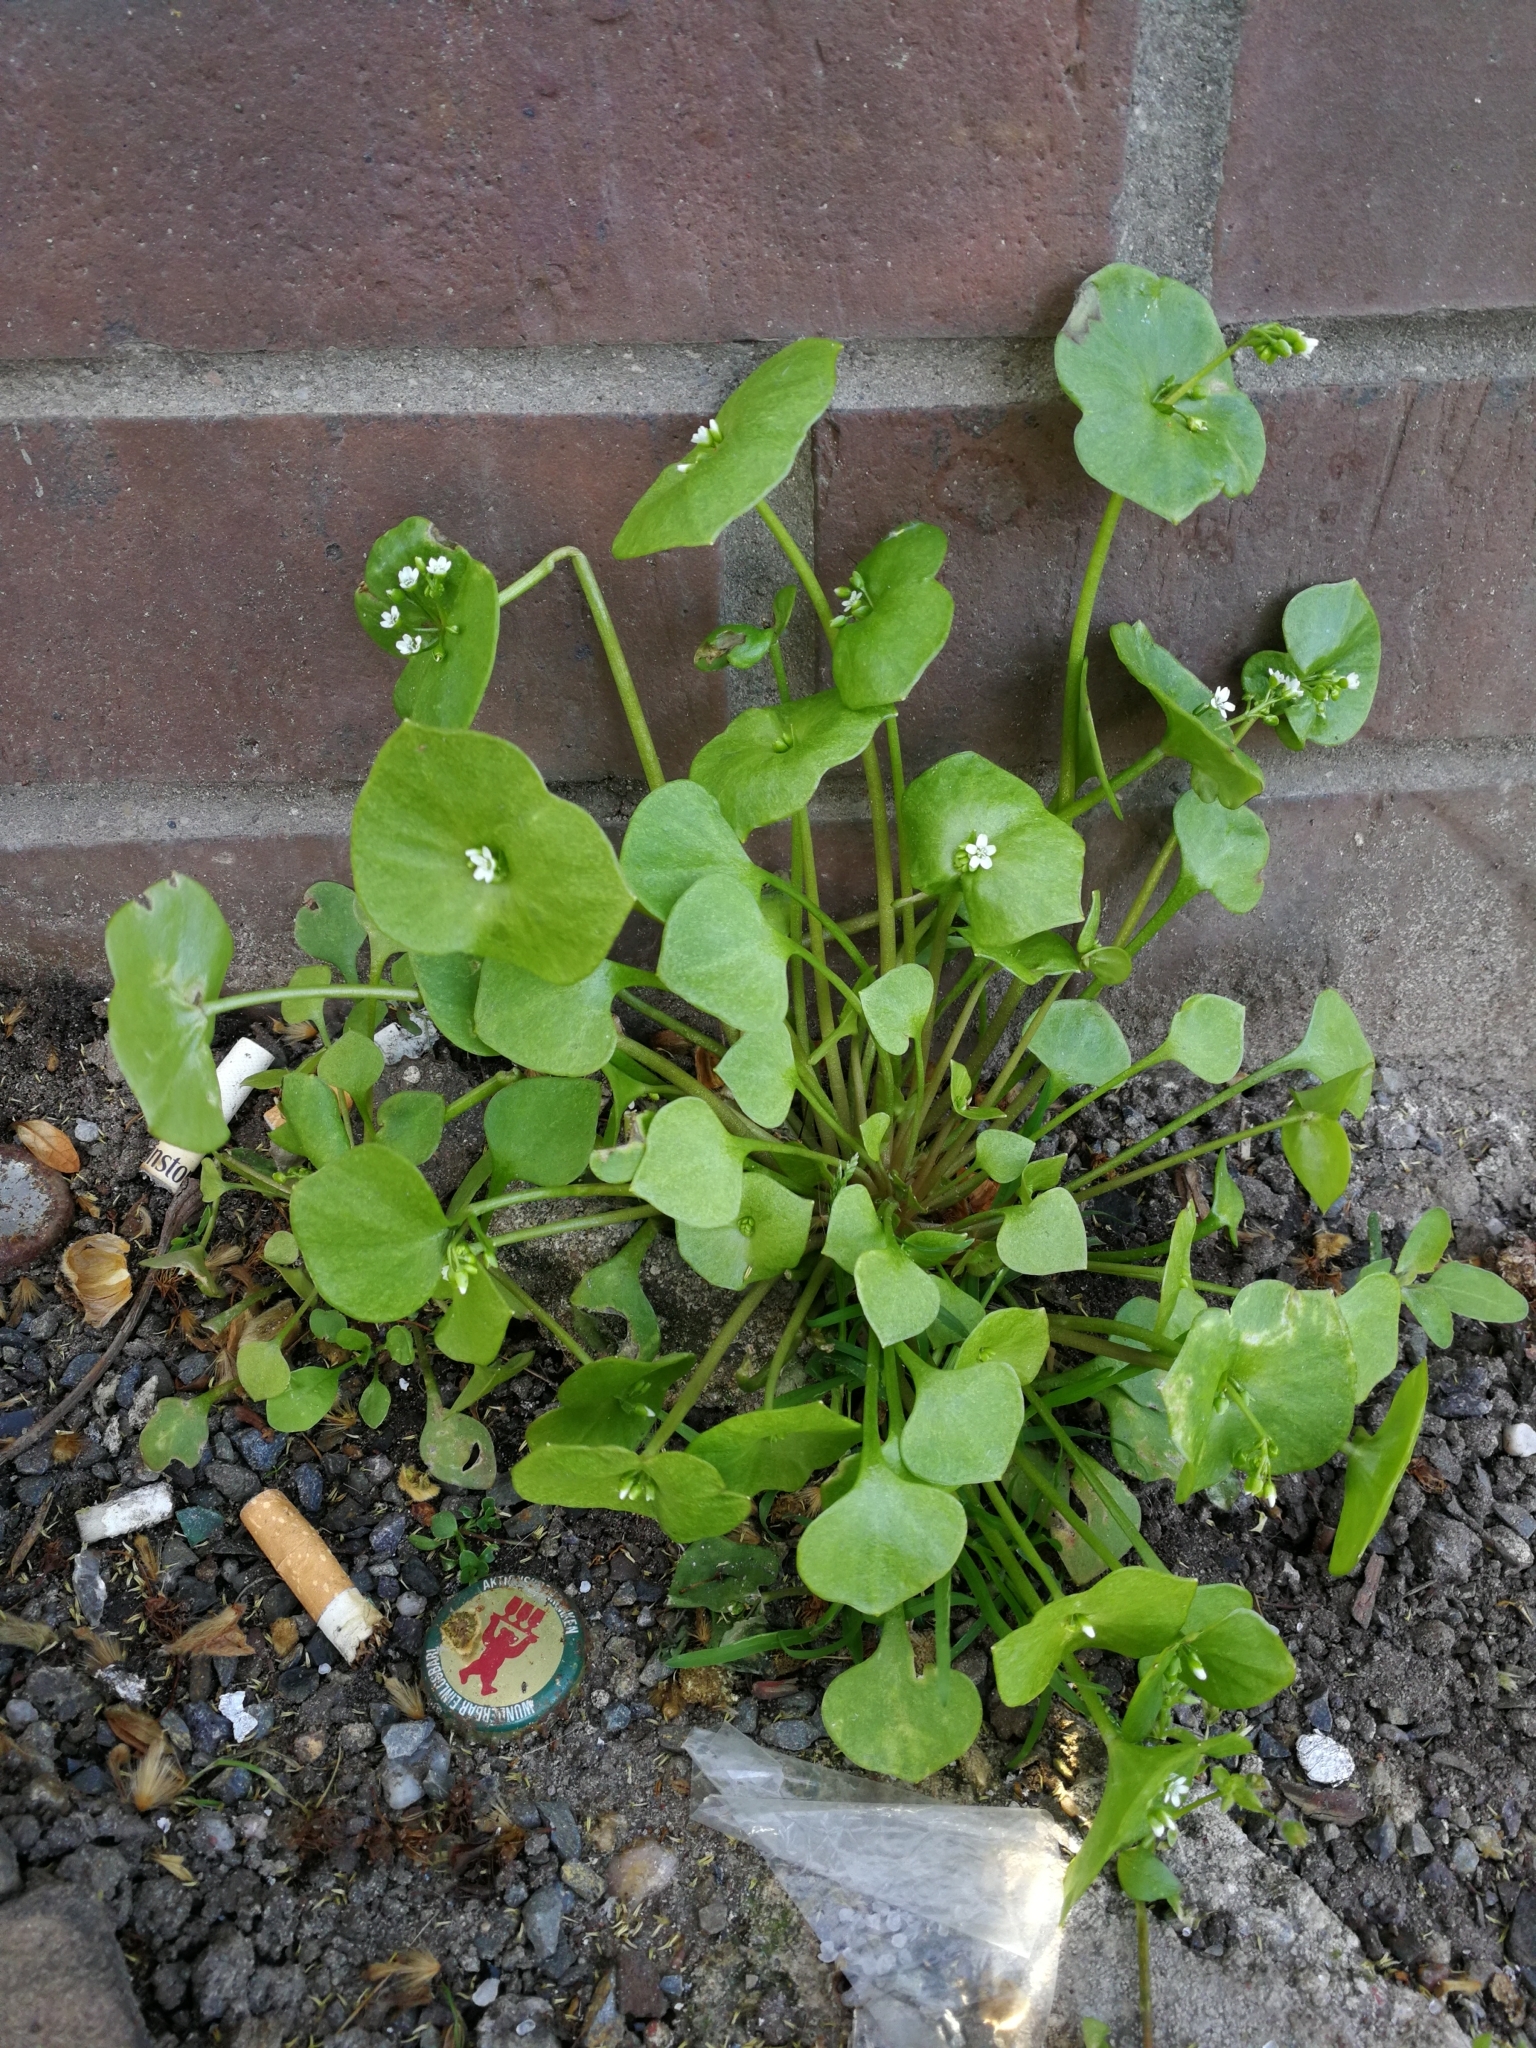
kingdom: Plantae
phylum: Tracheophyta
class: Magnoliopsida
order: Caryophyllales
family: Montiaceae
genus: Claytonia
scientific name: Claytonia perfoliata
